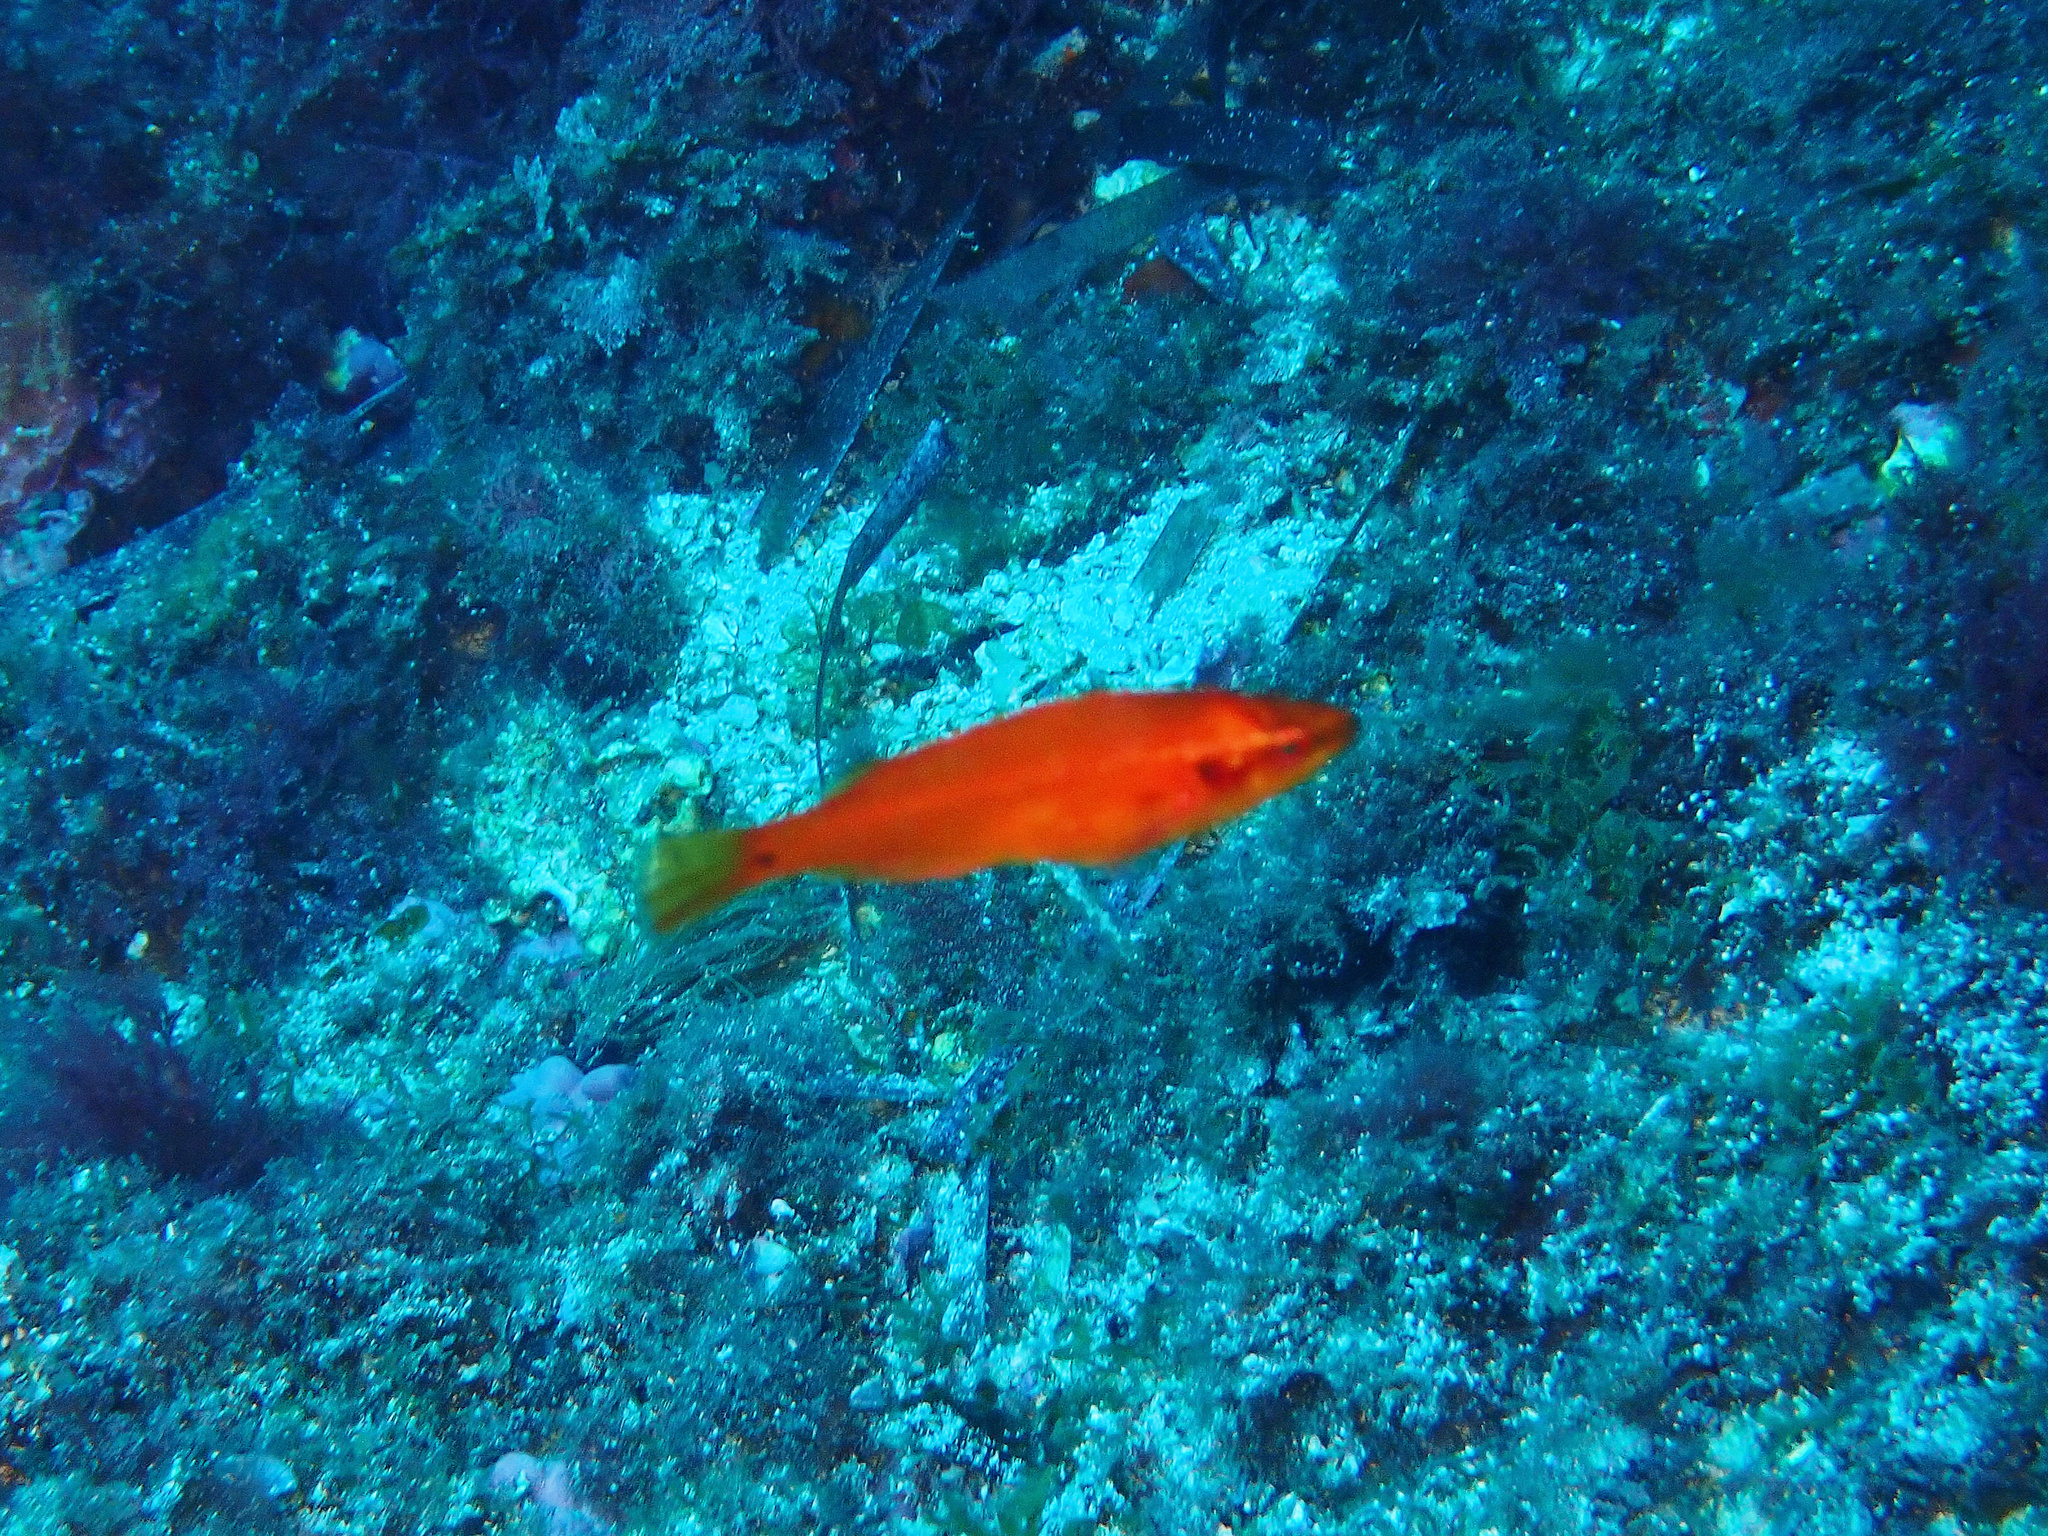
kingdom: Animalia
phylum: Chordata
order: Perciformes
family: Labridae
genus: Symphodus
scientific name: Symphodus ocellatus
